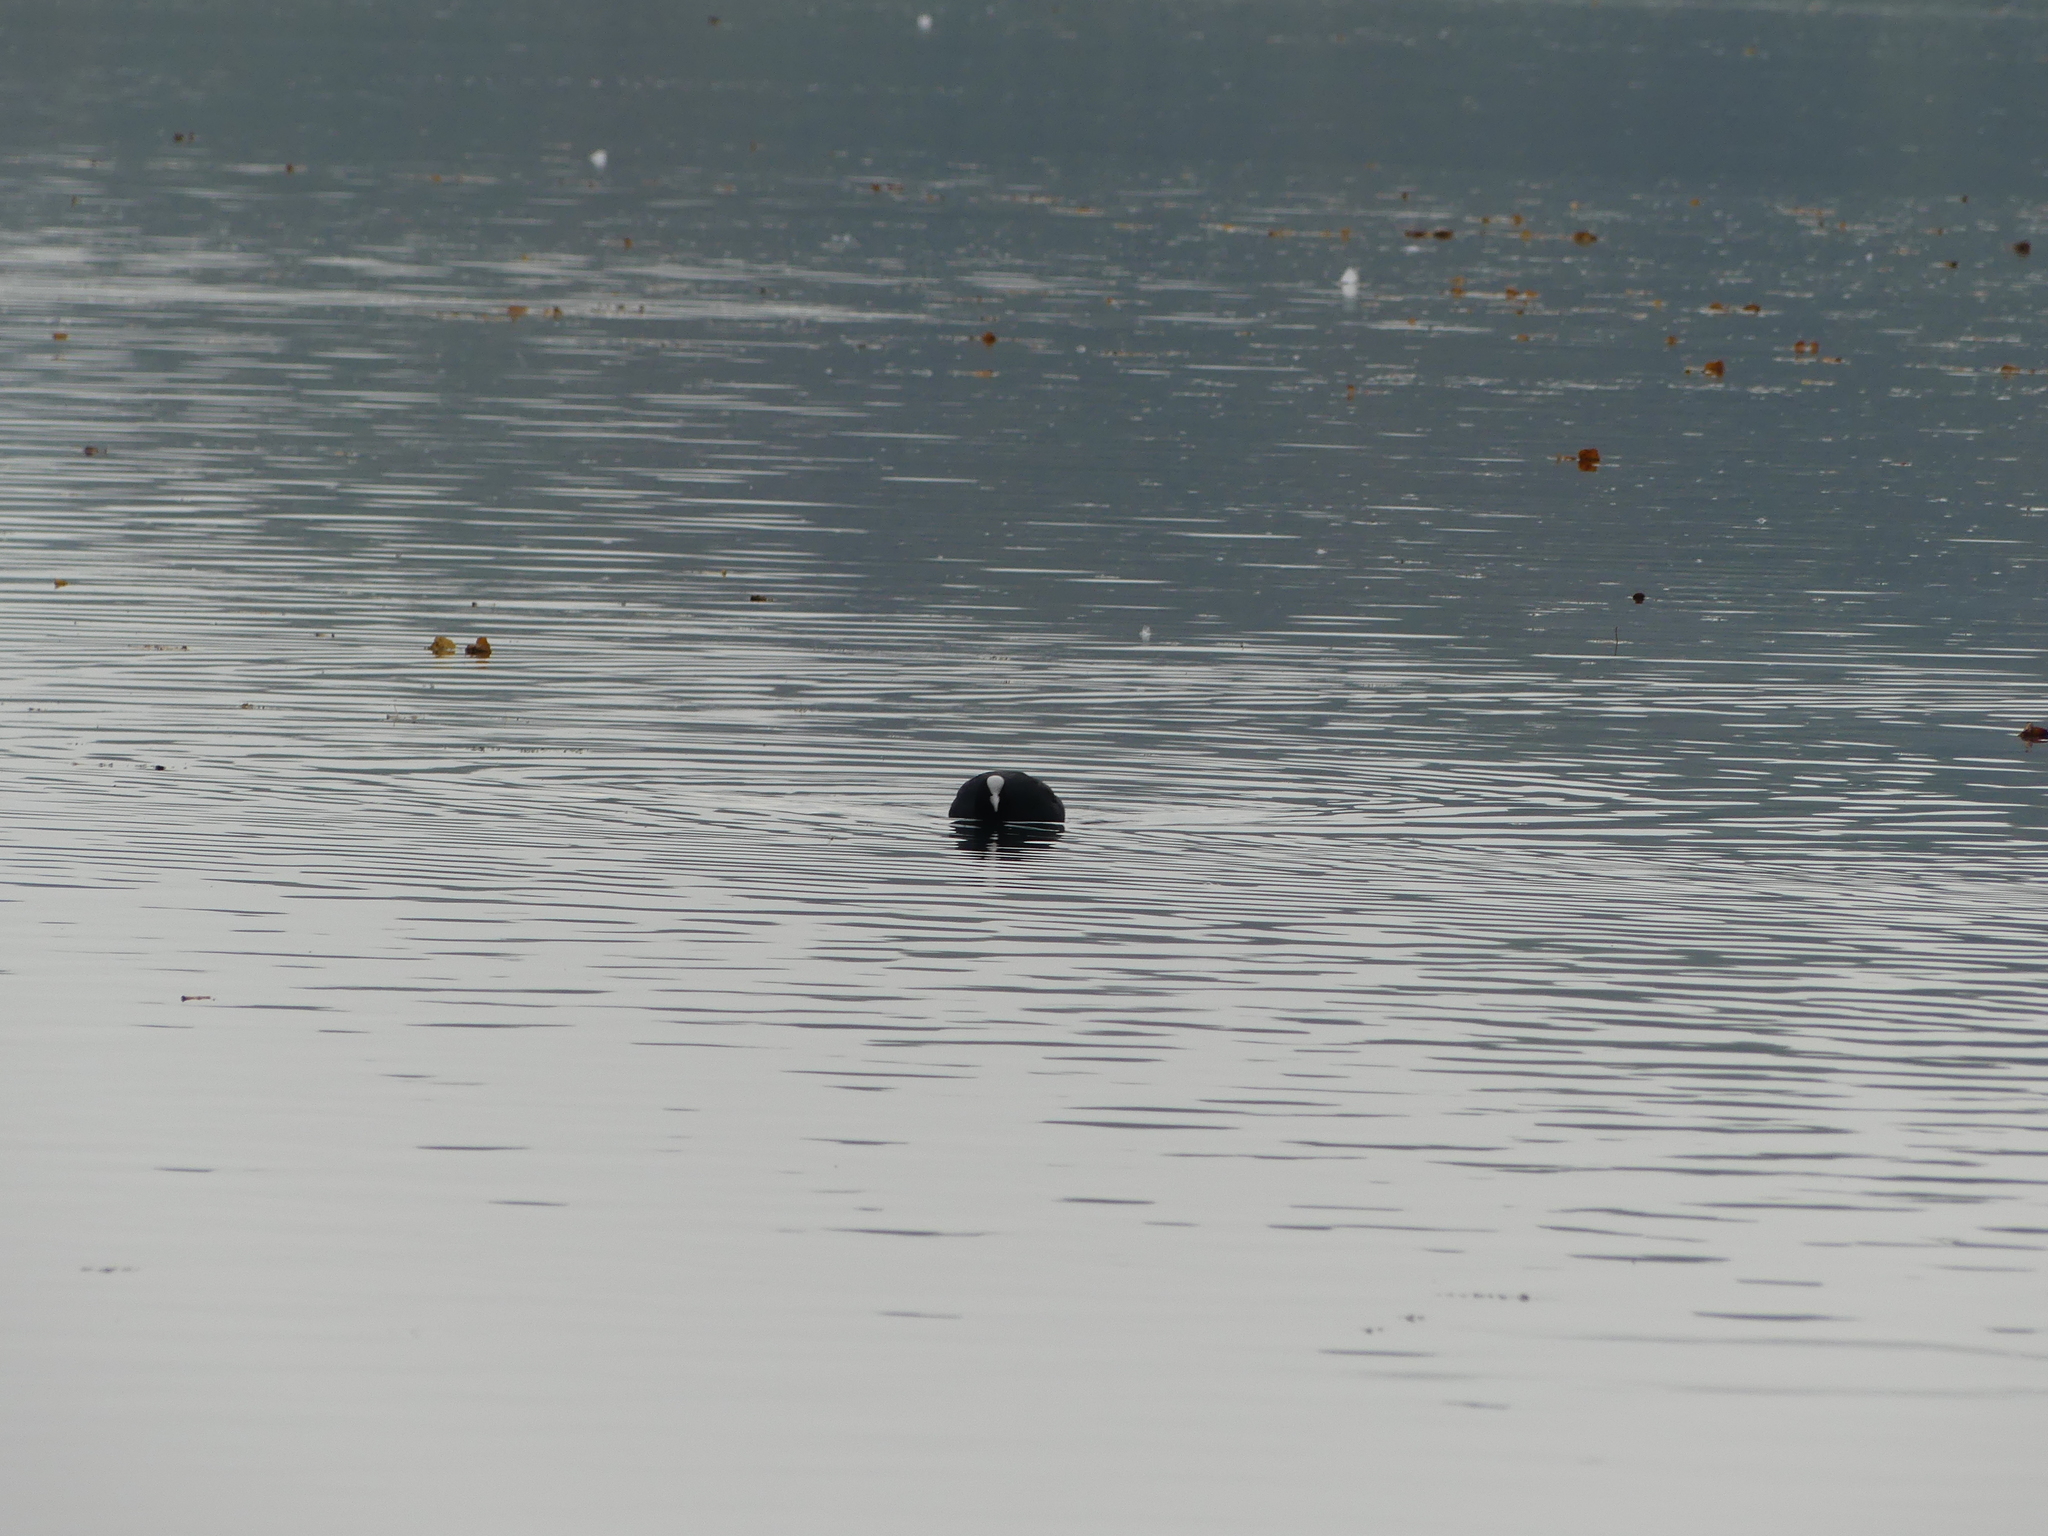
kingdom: Animalia
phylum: Chordata
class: Aves
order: Gruiformes
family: Rallidae
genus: Fulica
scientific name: Fulica atra
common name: Eurasian coot
